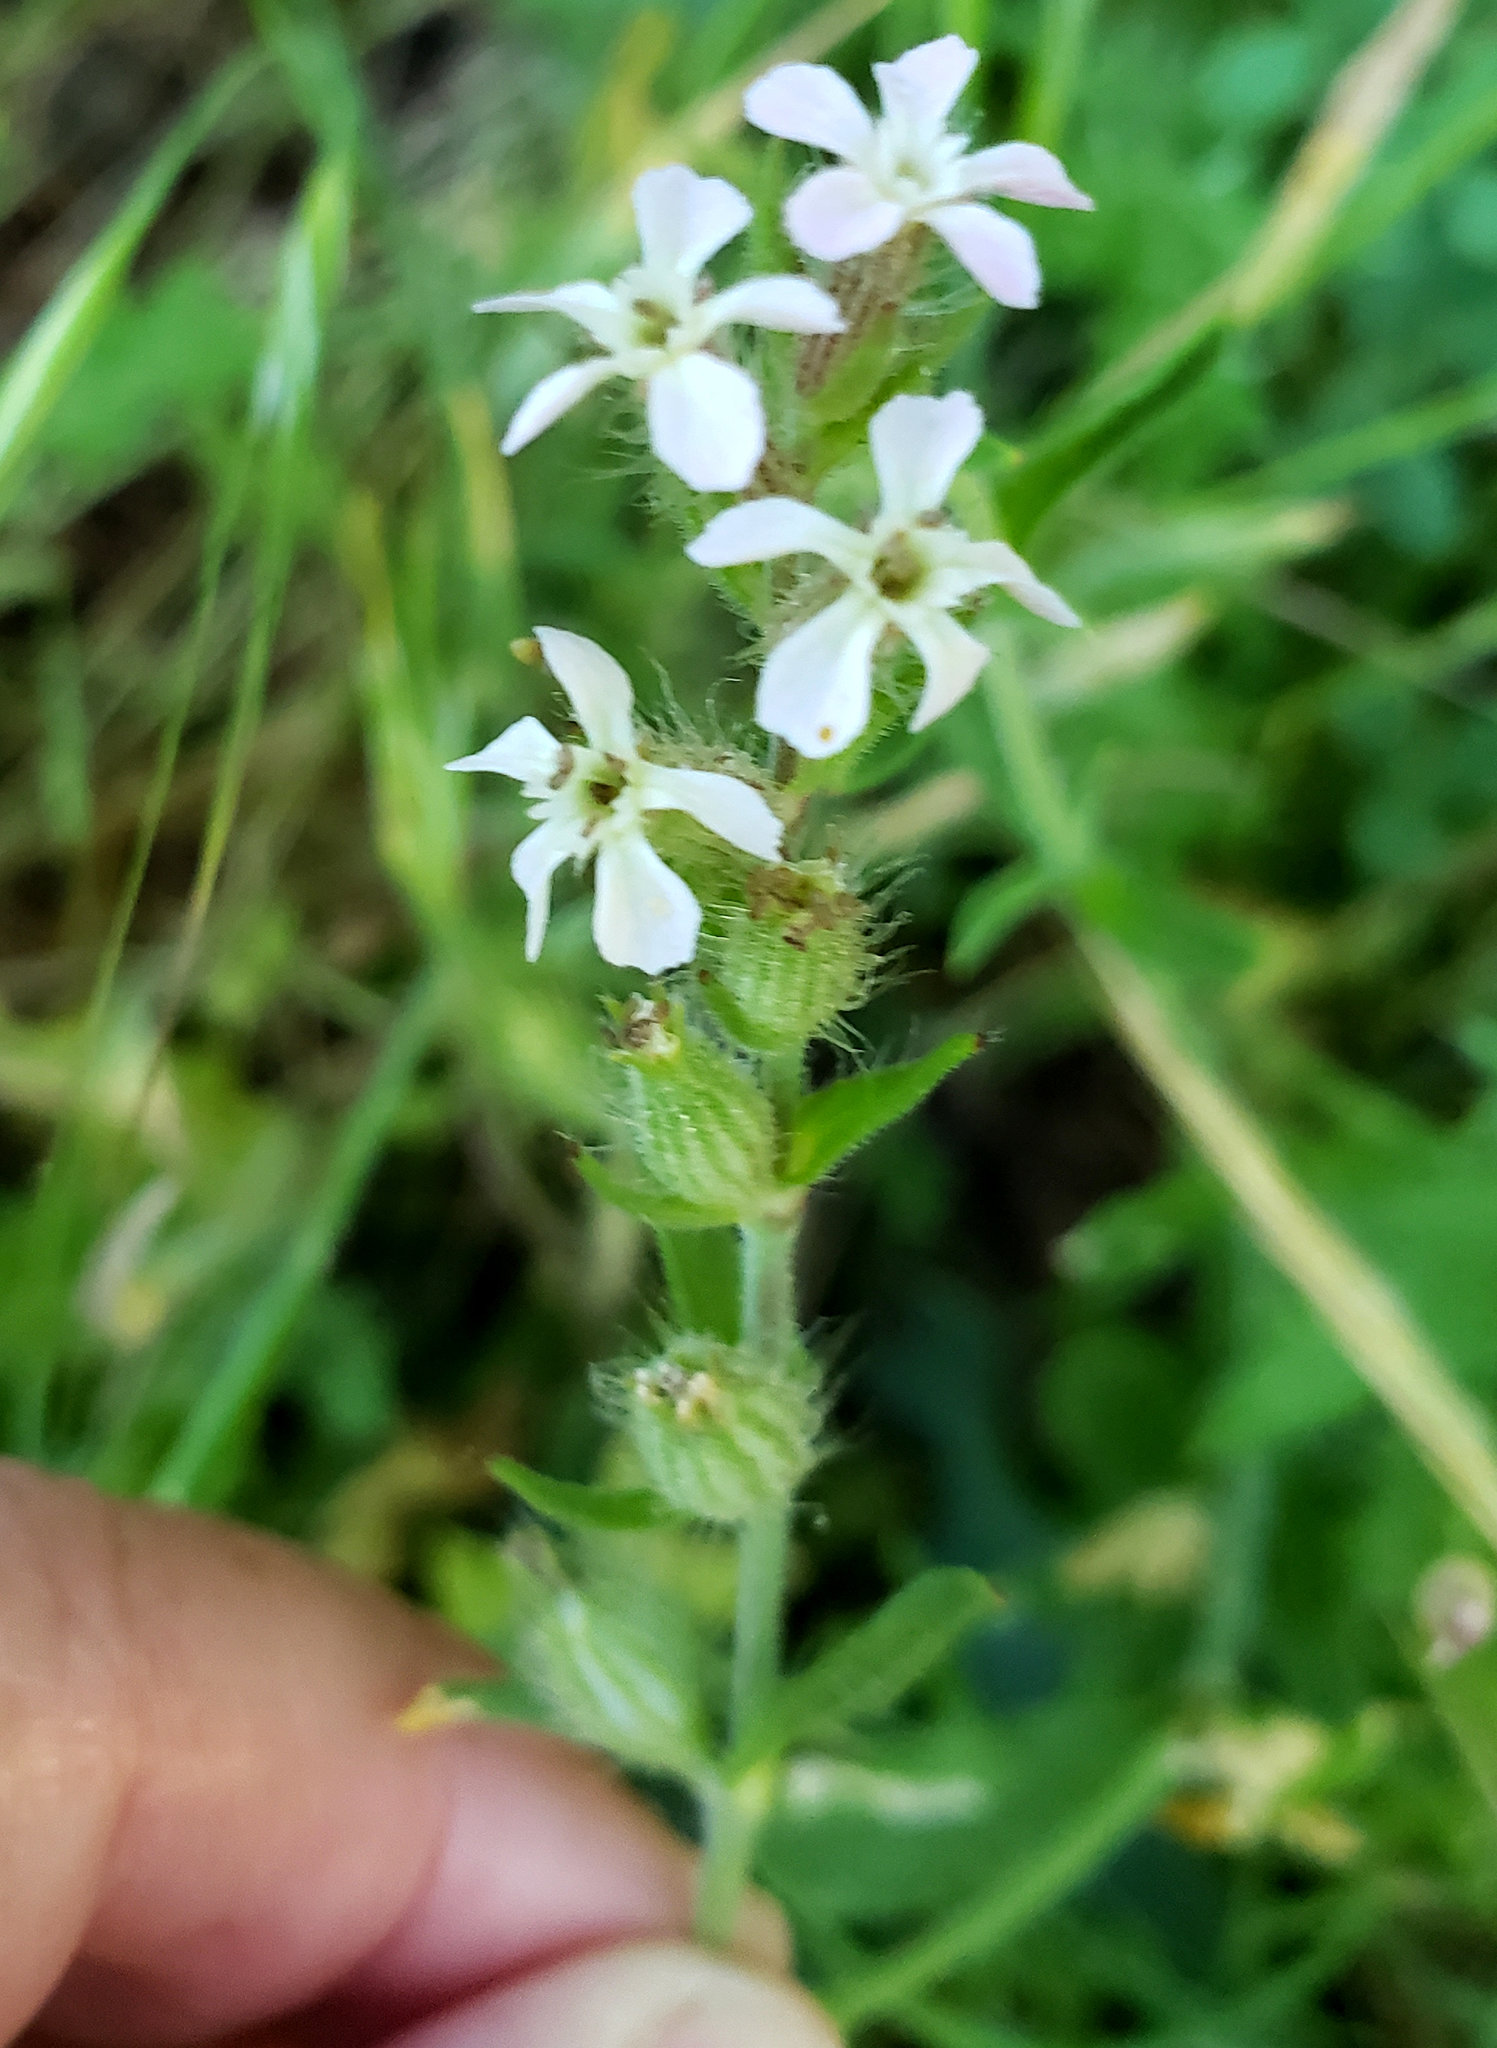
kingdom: Plantae
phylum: Tracheophyta
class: Magnoliopsida
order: Caryophyllales
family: Caryophyllaceae
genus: Silene
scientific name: Silene gallica
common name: Small-flowered catchfly
